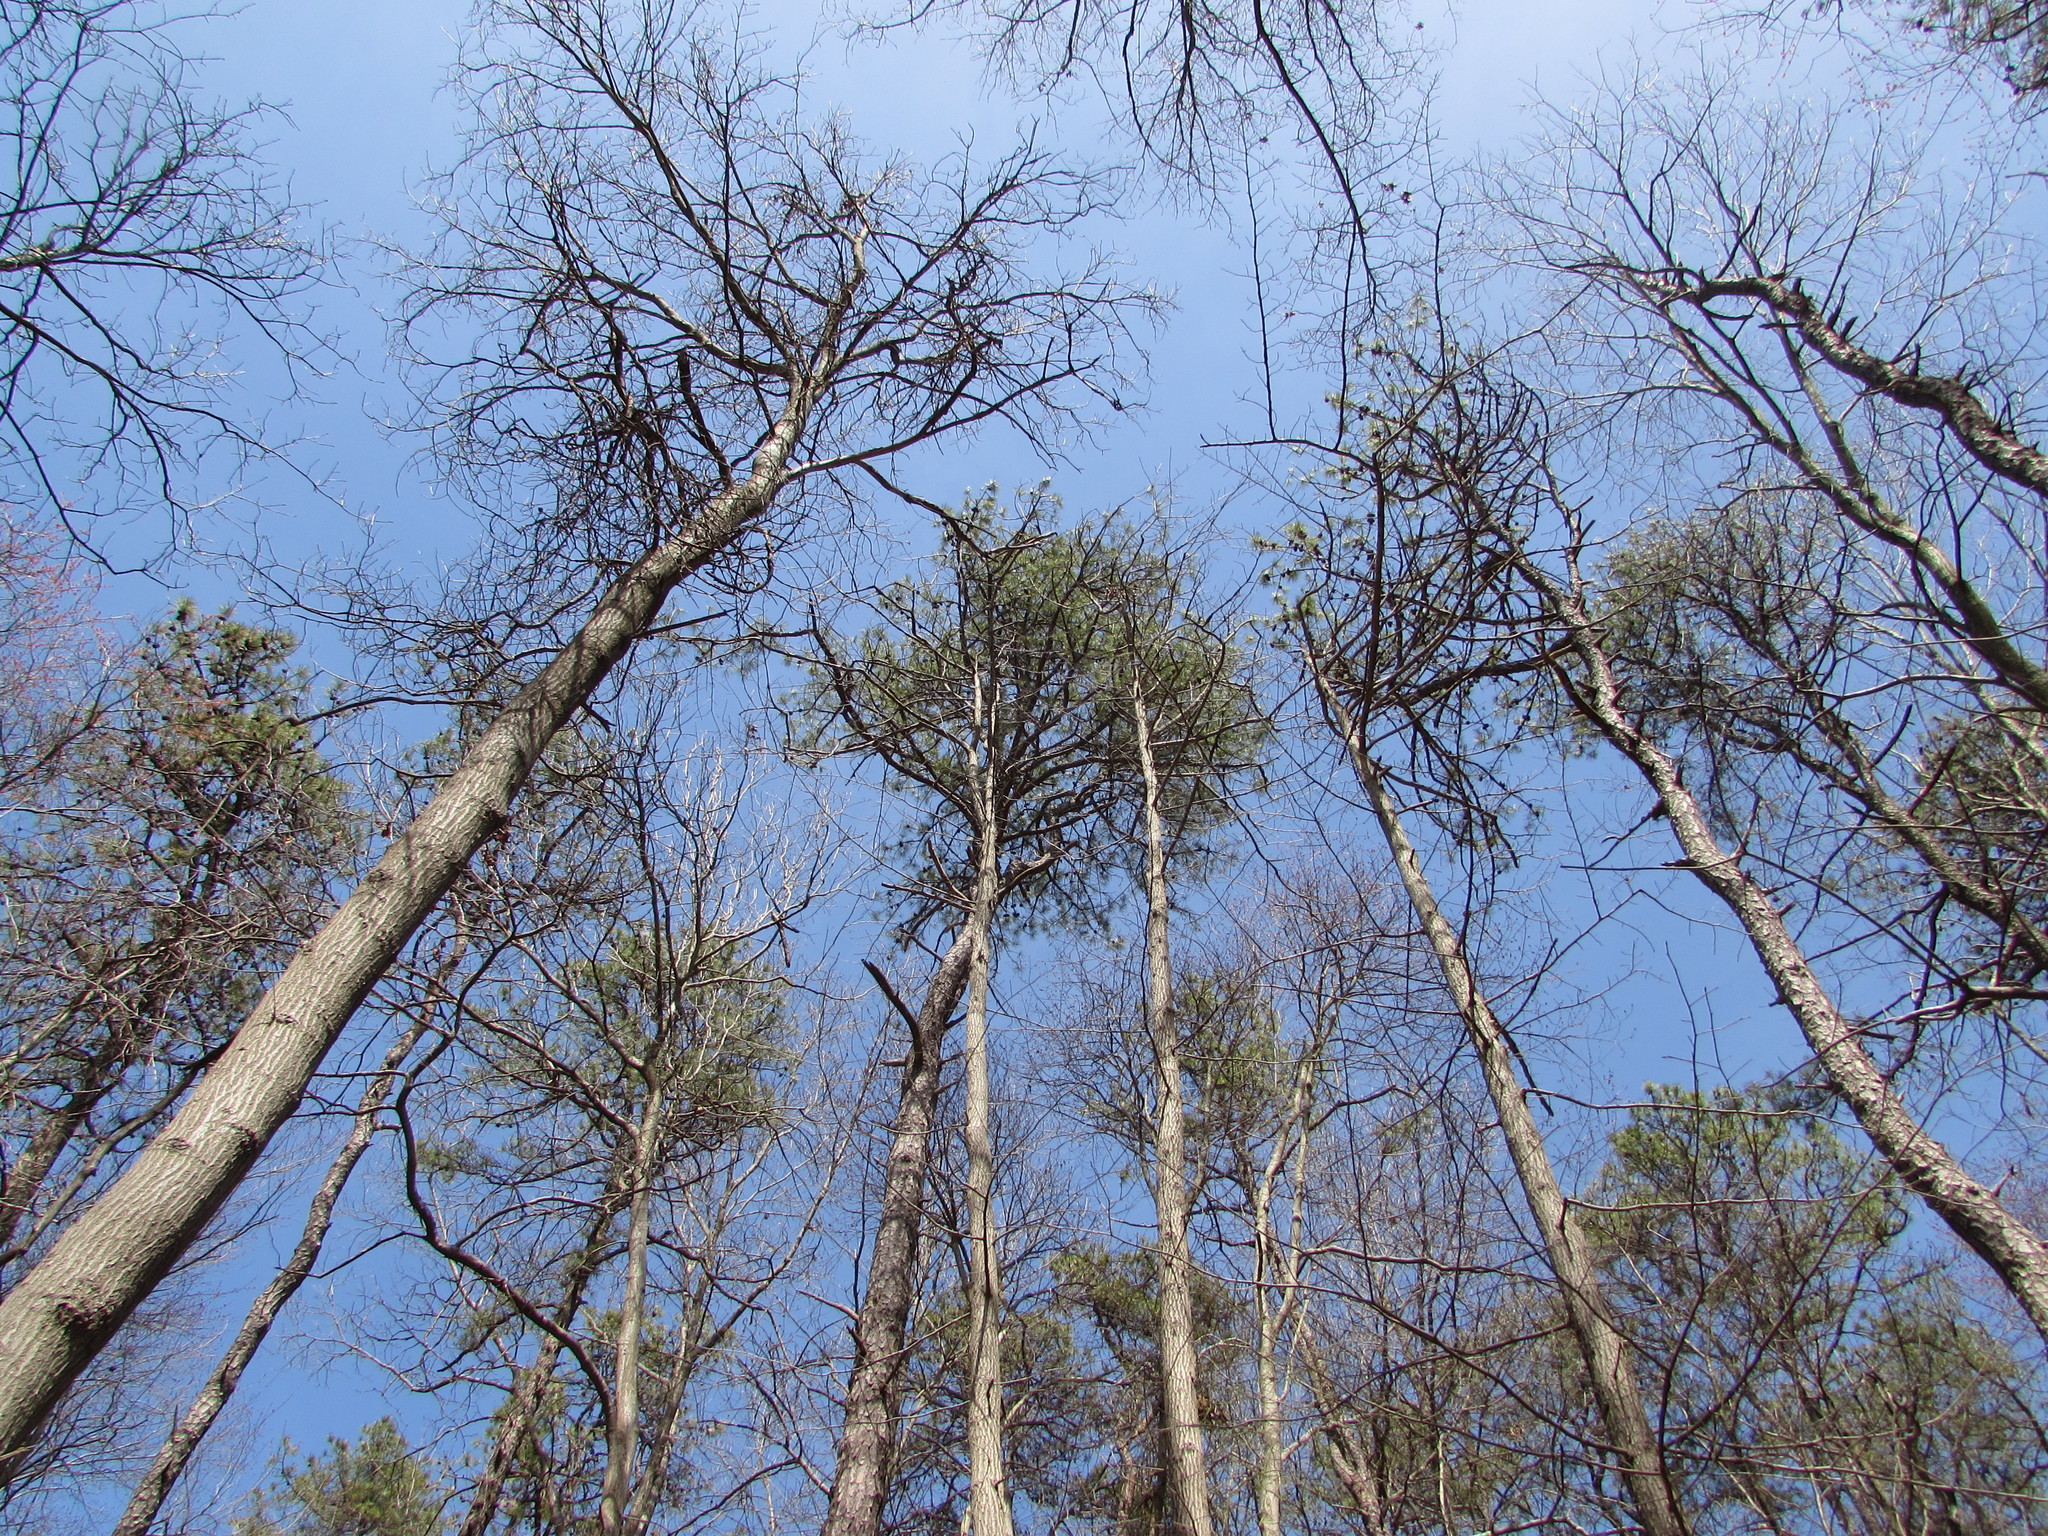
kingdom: Plantae
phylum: Tracheophyta
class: Magnoliopsida
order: Fagales
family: Fagaceae
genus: Quercus
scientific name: Quercus rubra
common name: Red oak
